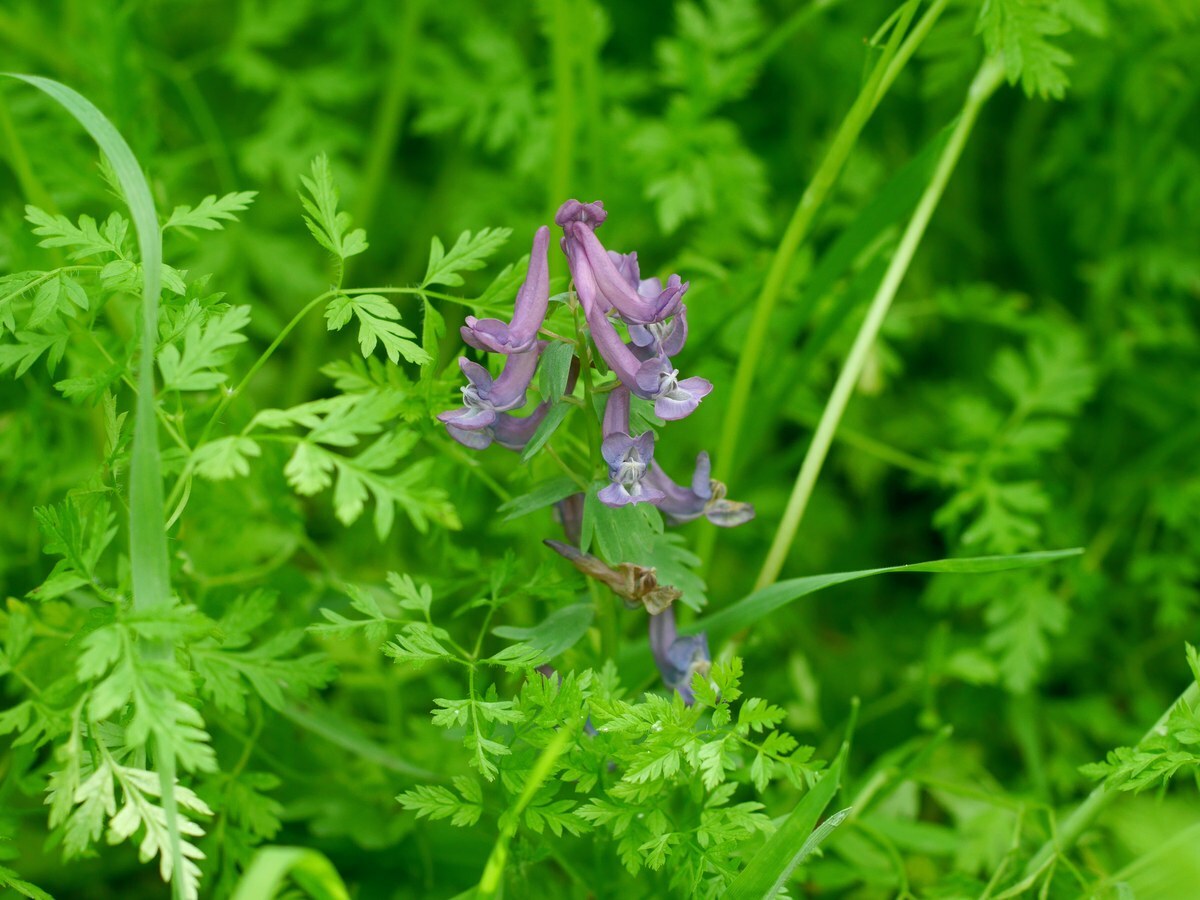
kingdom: Plantae
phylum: Tracheophyta
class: Magnoliopsida
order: Ranunculales
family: Papaveraceae
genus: Corydalis
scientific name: Corydalis solida
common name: Bird-in-a-bush
